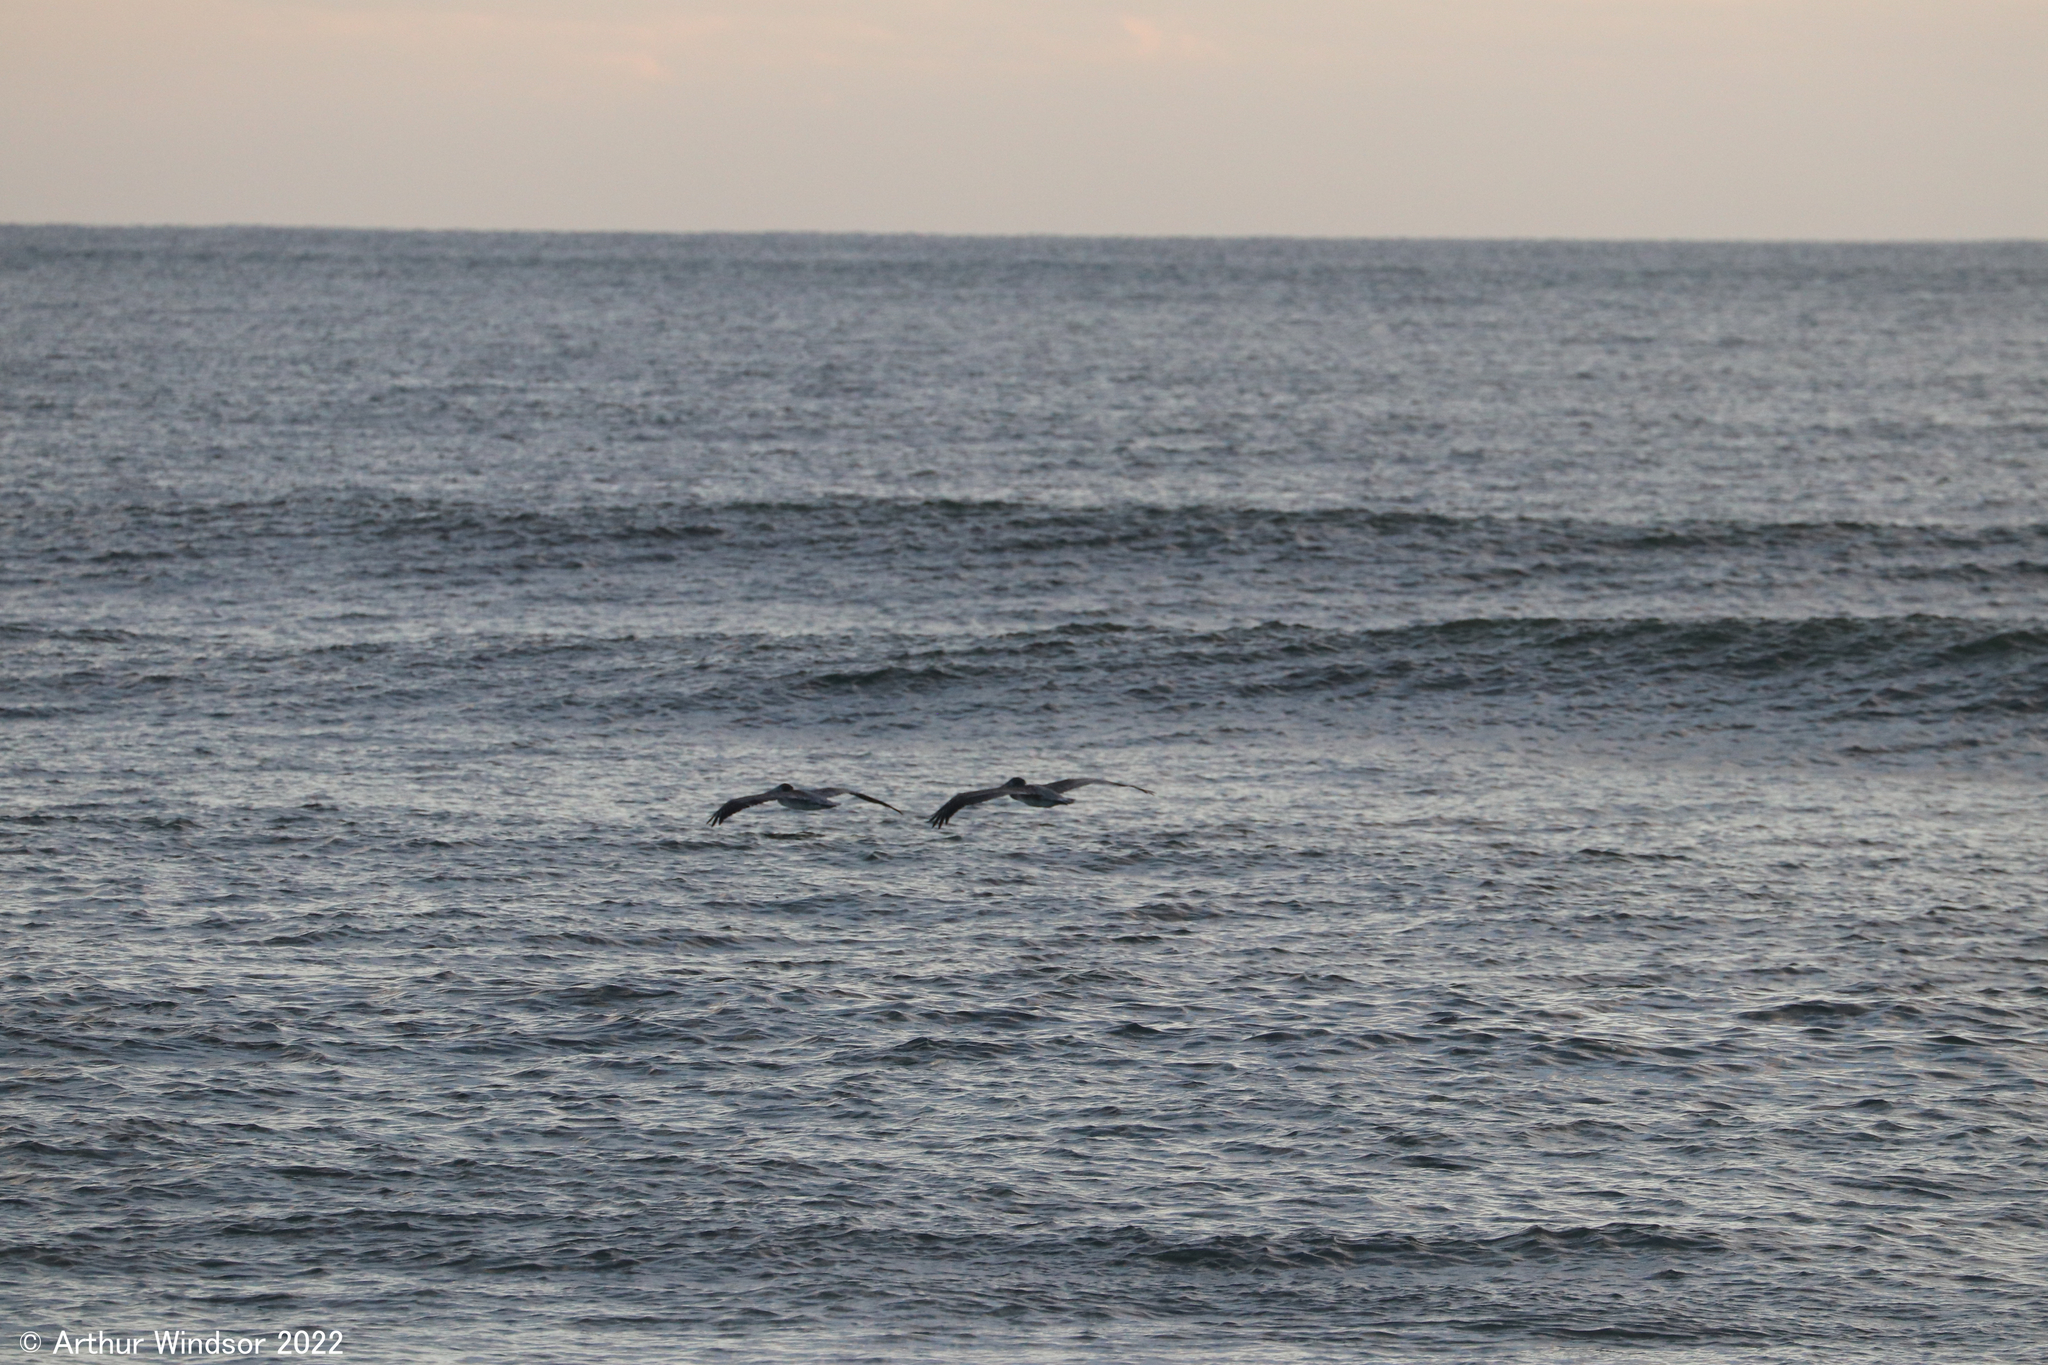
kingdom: Animalia
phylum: Chordata
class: Aves
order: Pelecaniformes
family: Pelecanidae
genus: Pelecanus
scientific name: Pelecanus occidentalis
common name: Brown pelican
